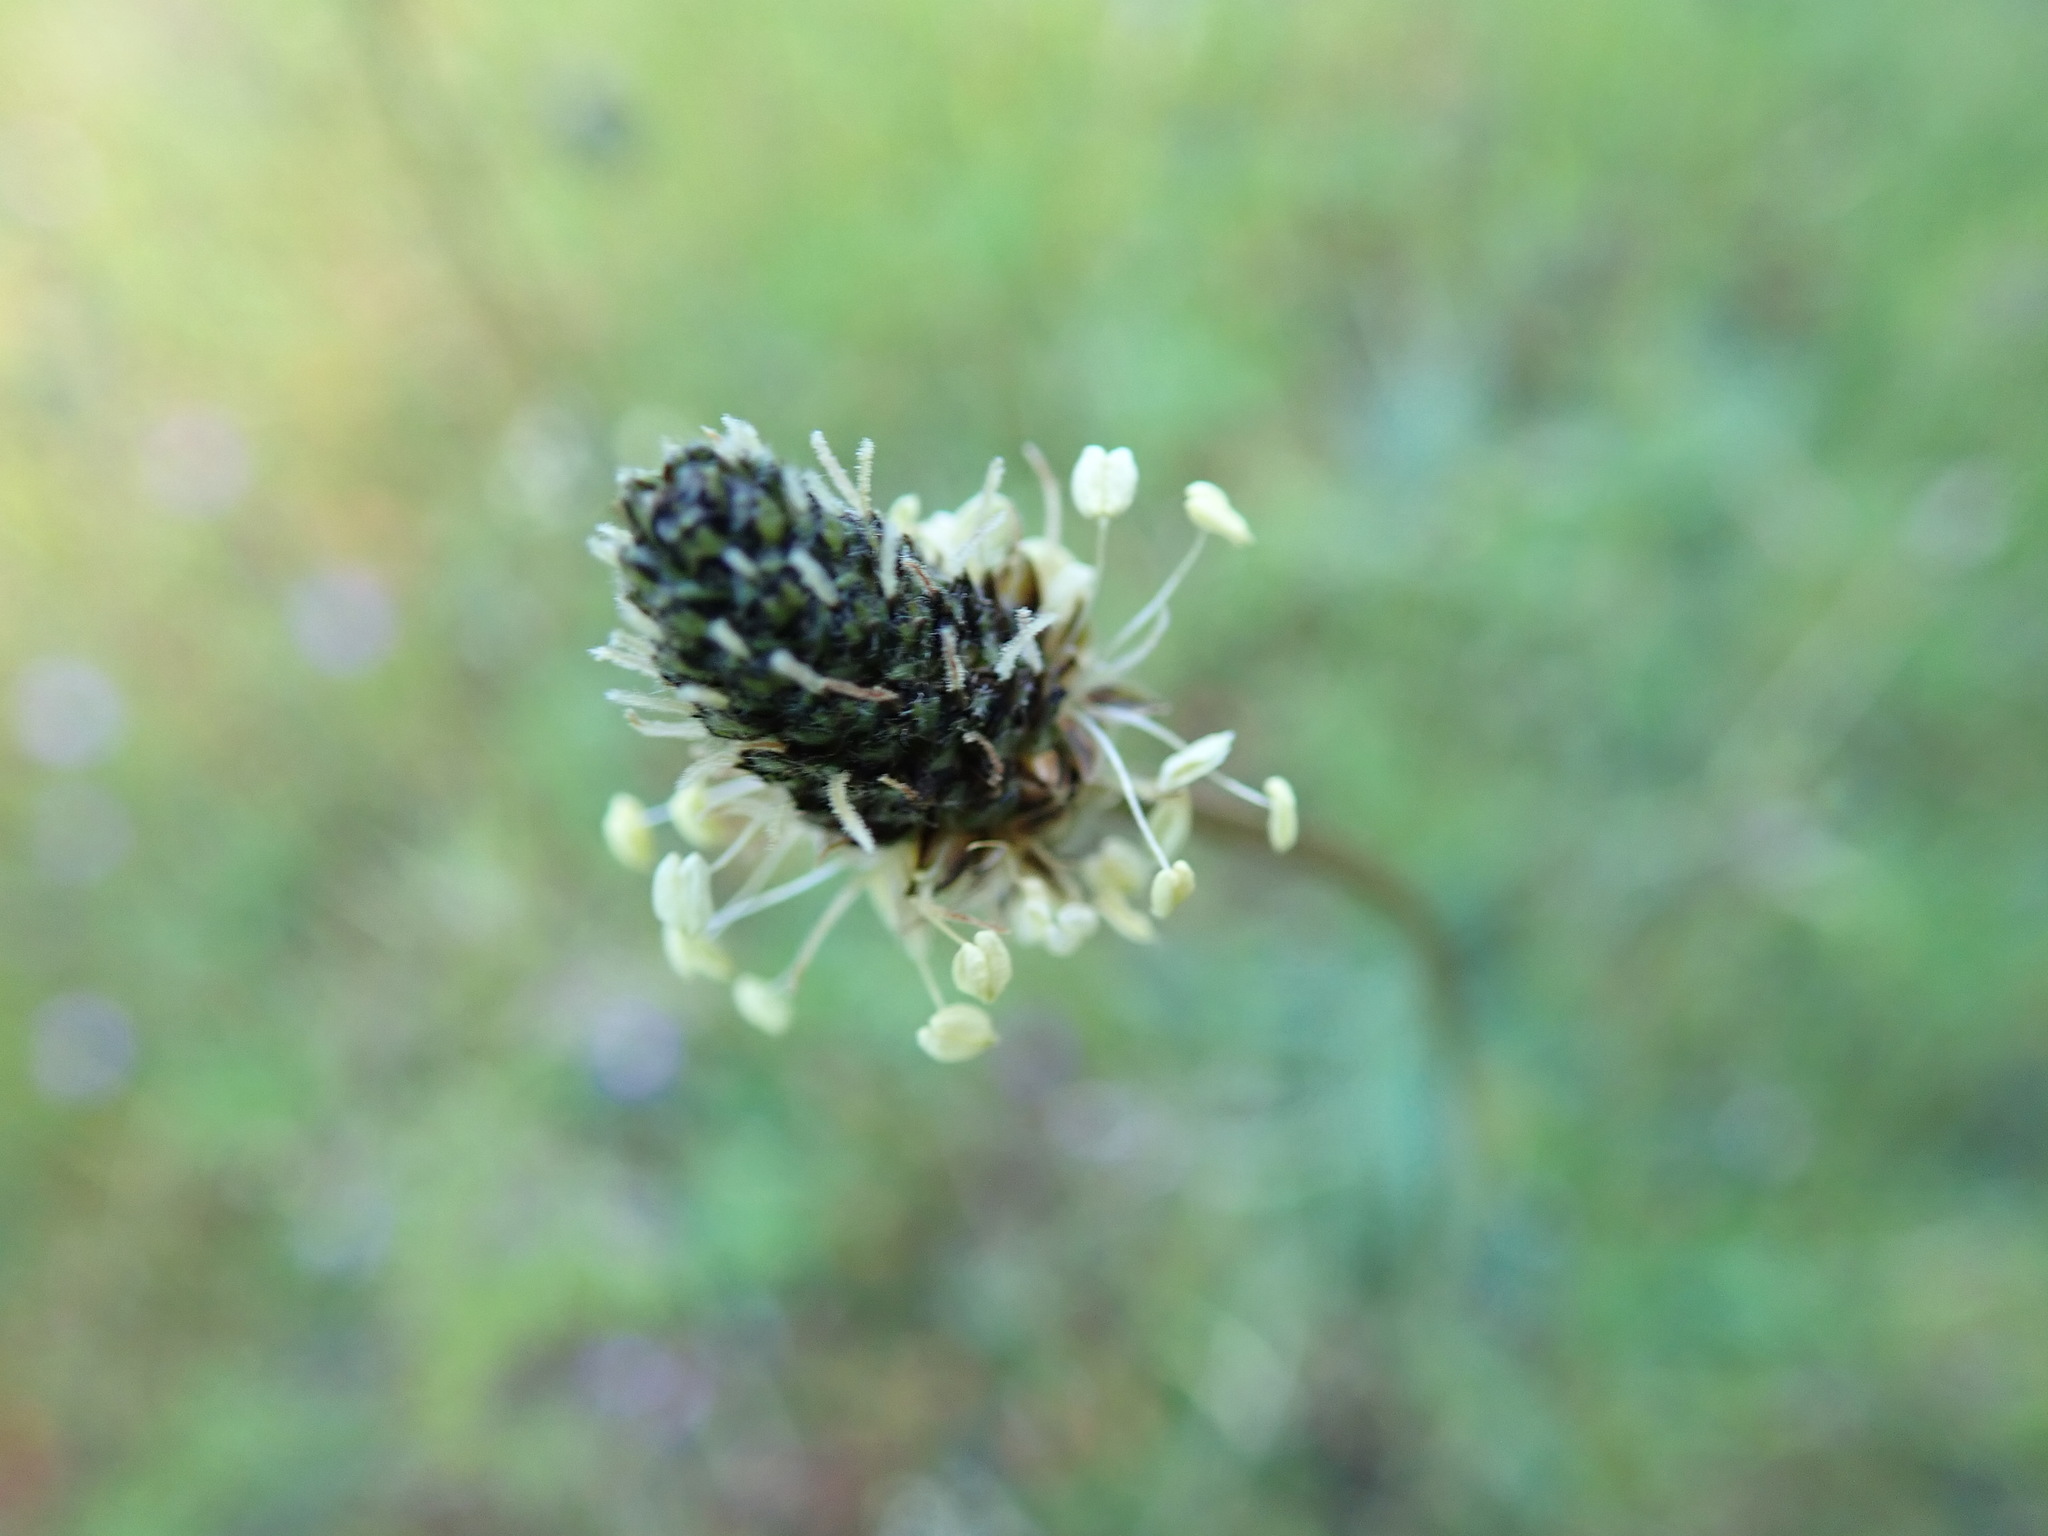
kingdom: Plantae
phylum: Tracheophyta
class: Magnoliopsida
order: Lamiales
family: Plantaginaceae
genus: Plantago
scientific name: Plantago lanceolata
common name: Ribwort plantain
